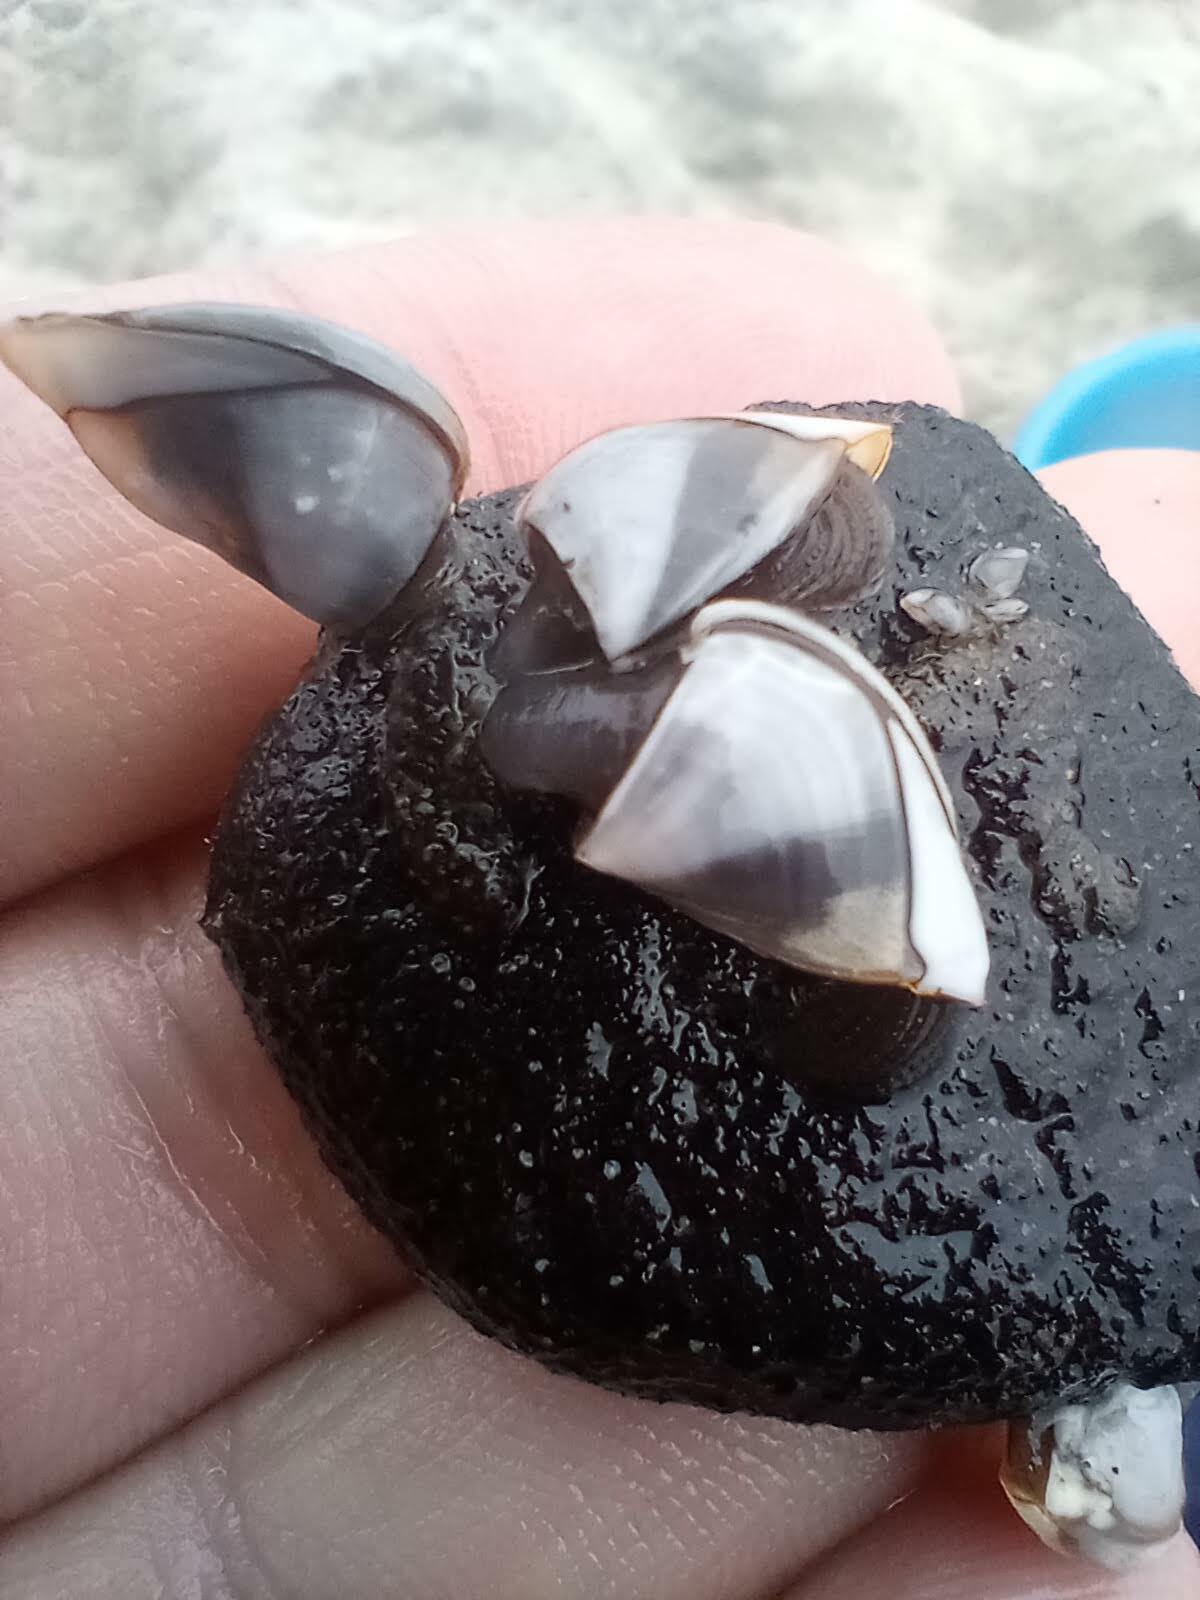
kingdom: Animalia
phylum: Arthropoda
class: Maxillopoda
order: Pedunculata
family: Lepadidae
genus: Lepas
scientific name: Lepas pacifica
